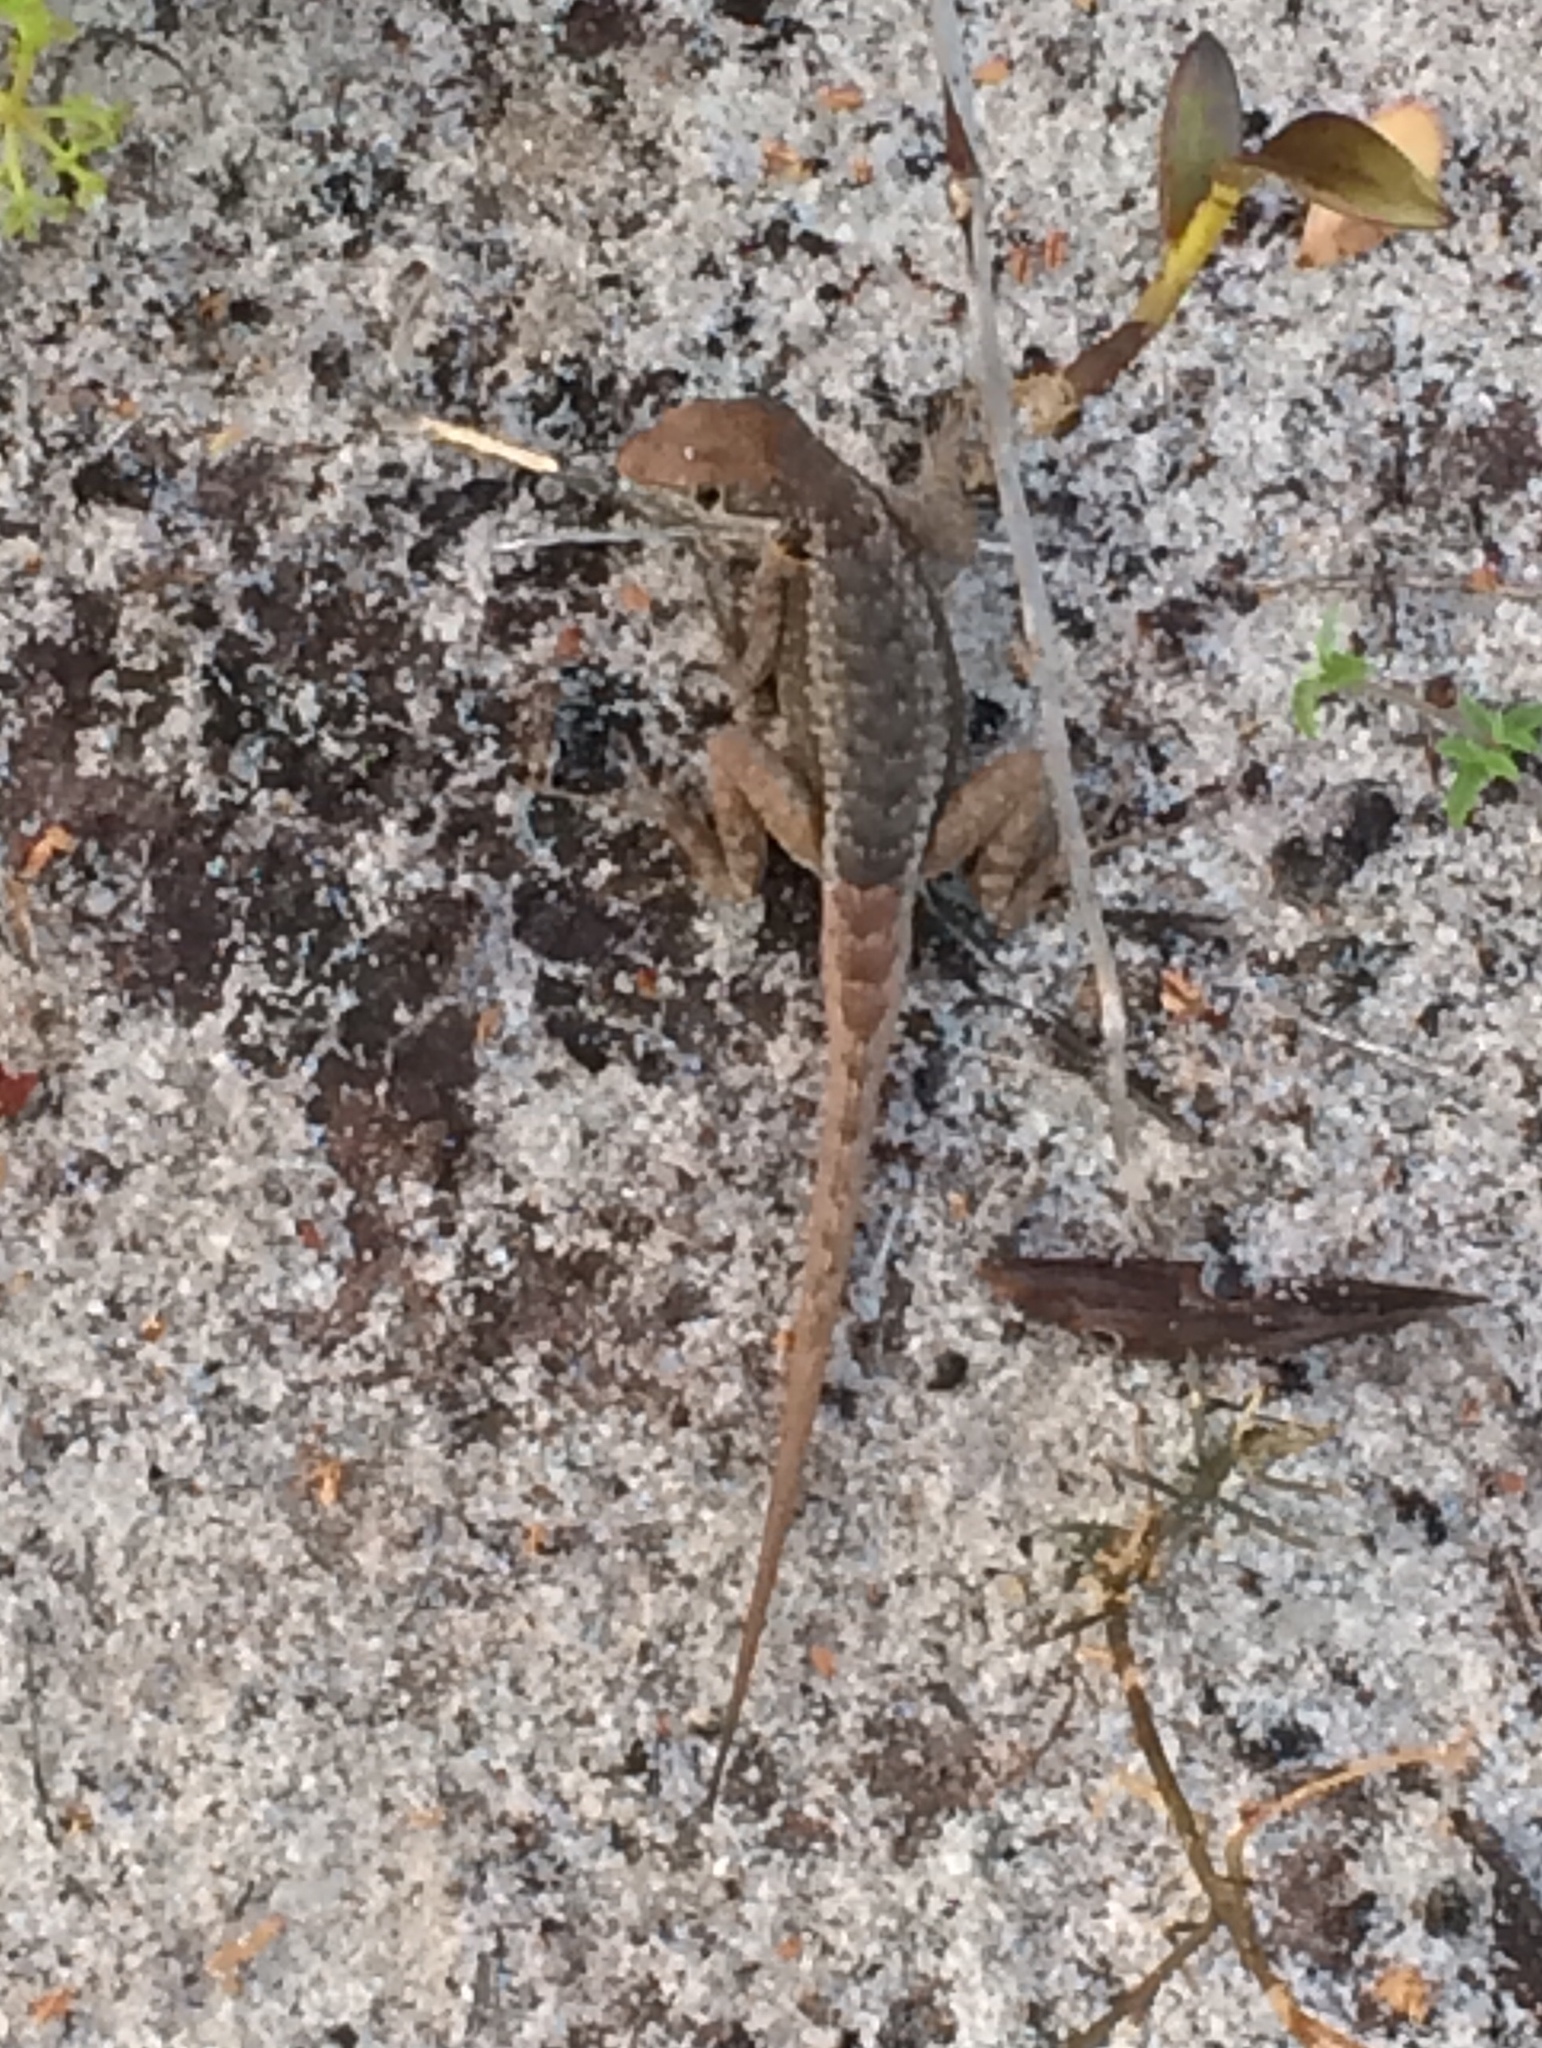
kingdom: Animalia
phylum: Chordata
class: Squamata
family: Tropiduridae
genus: Tropidurus
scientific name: Tropidurus hygomi
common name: Reinhardt's lava lizard
